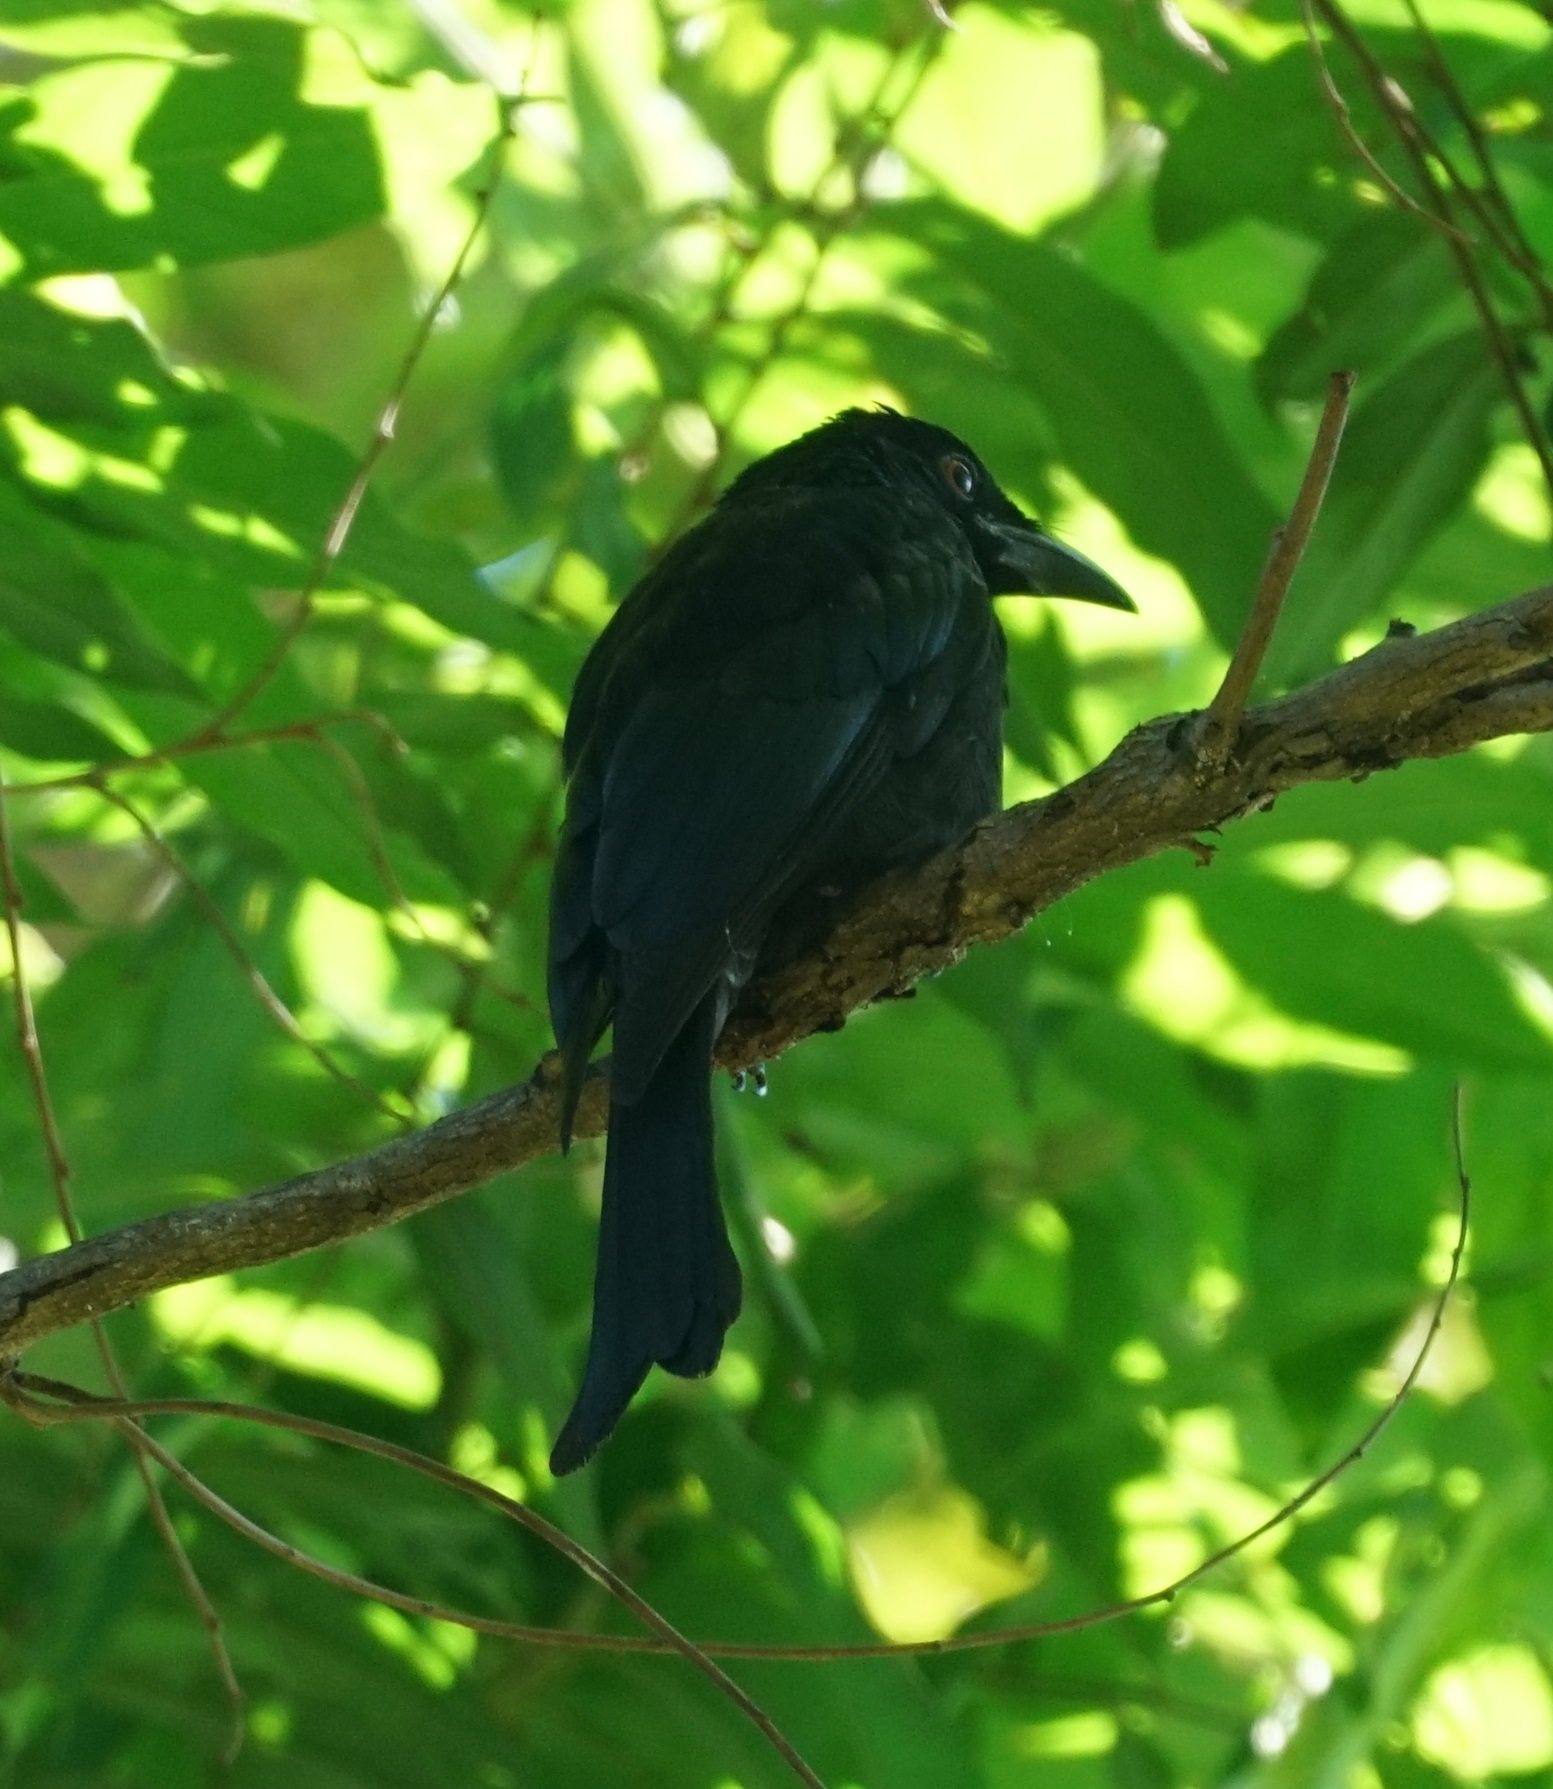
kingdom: Animalia
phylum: Chordata
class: Aves
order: Passeriformes
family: Dicruridae
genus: Dicrurus
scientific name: Dicrurus bracteatus
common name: Spangled drongo
